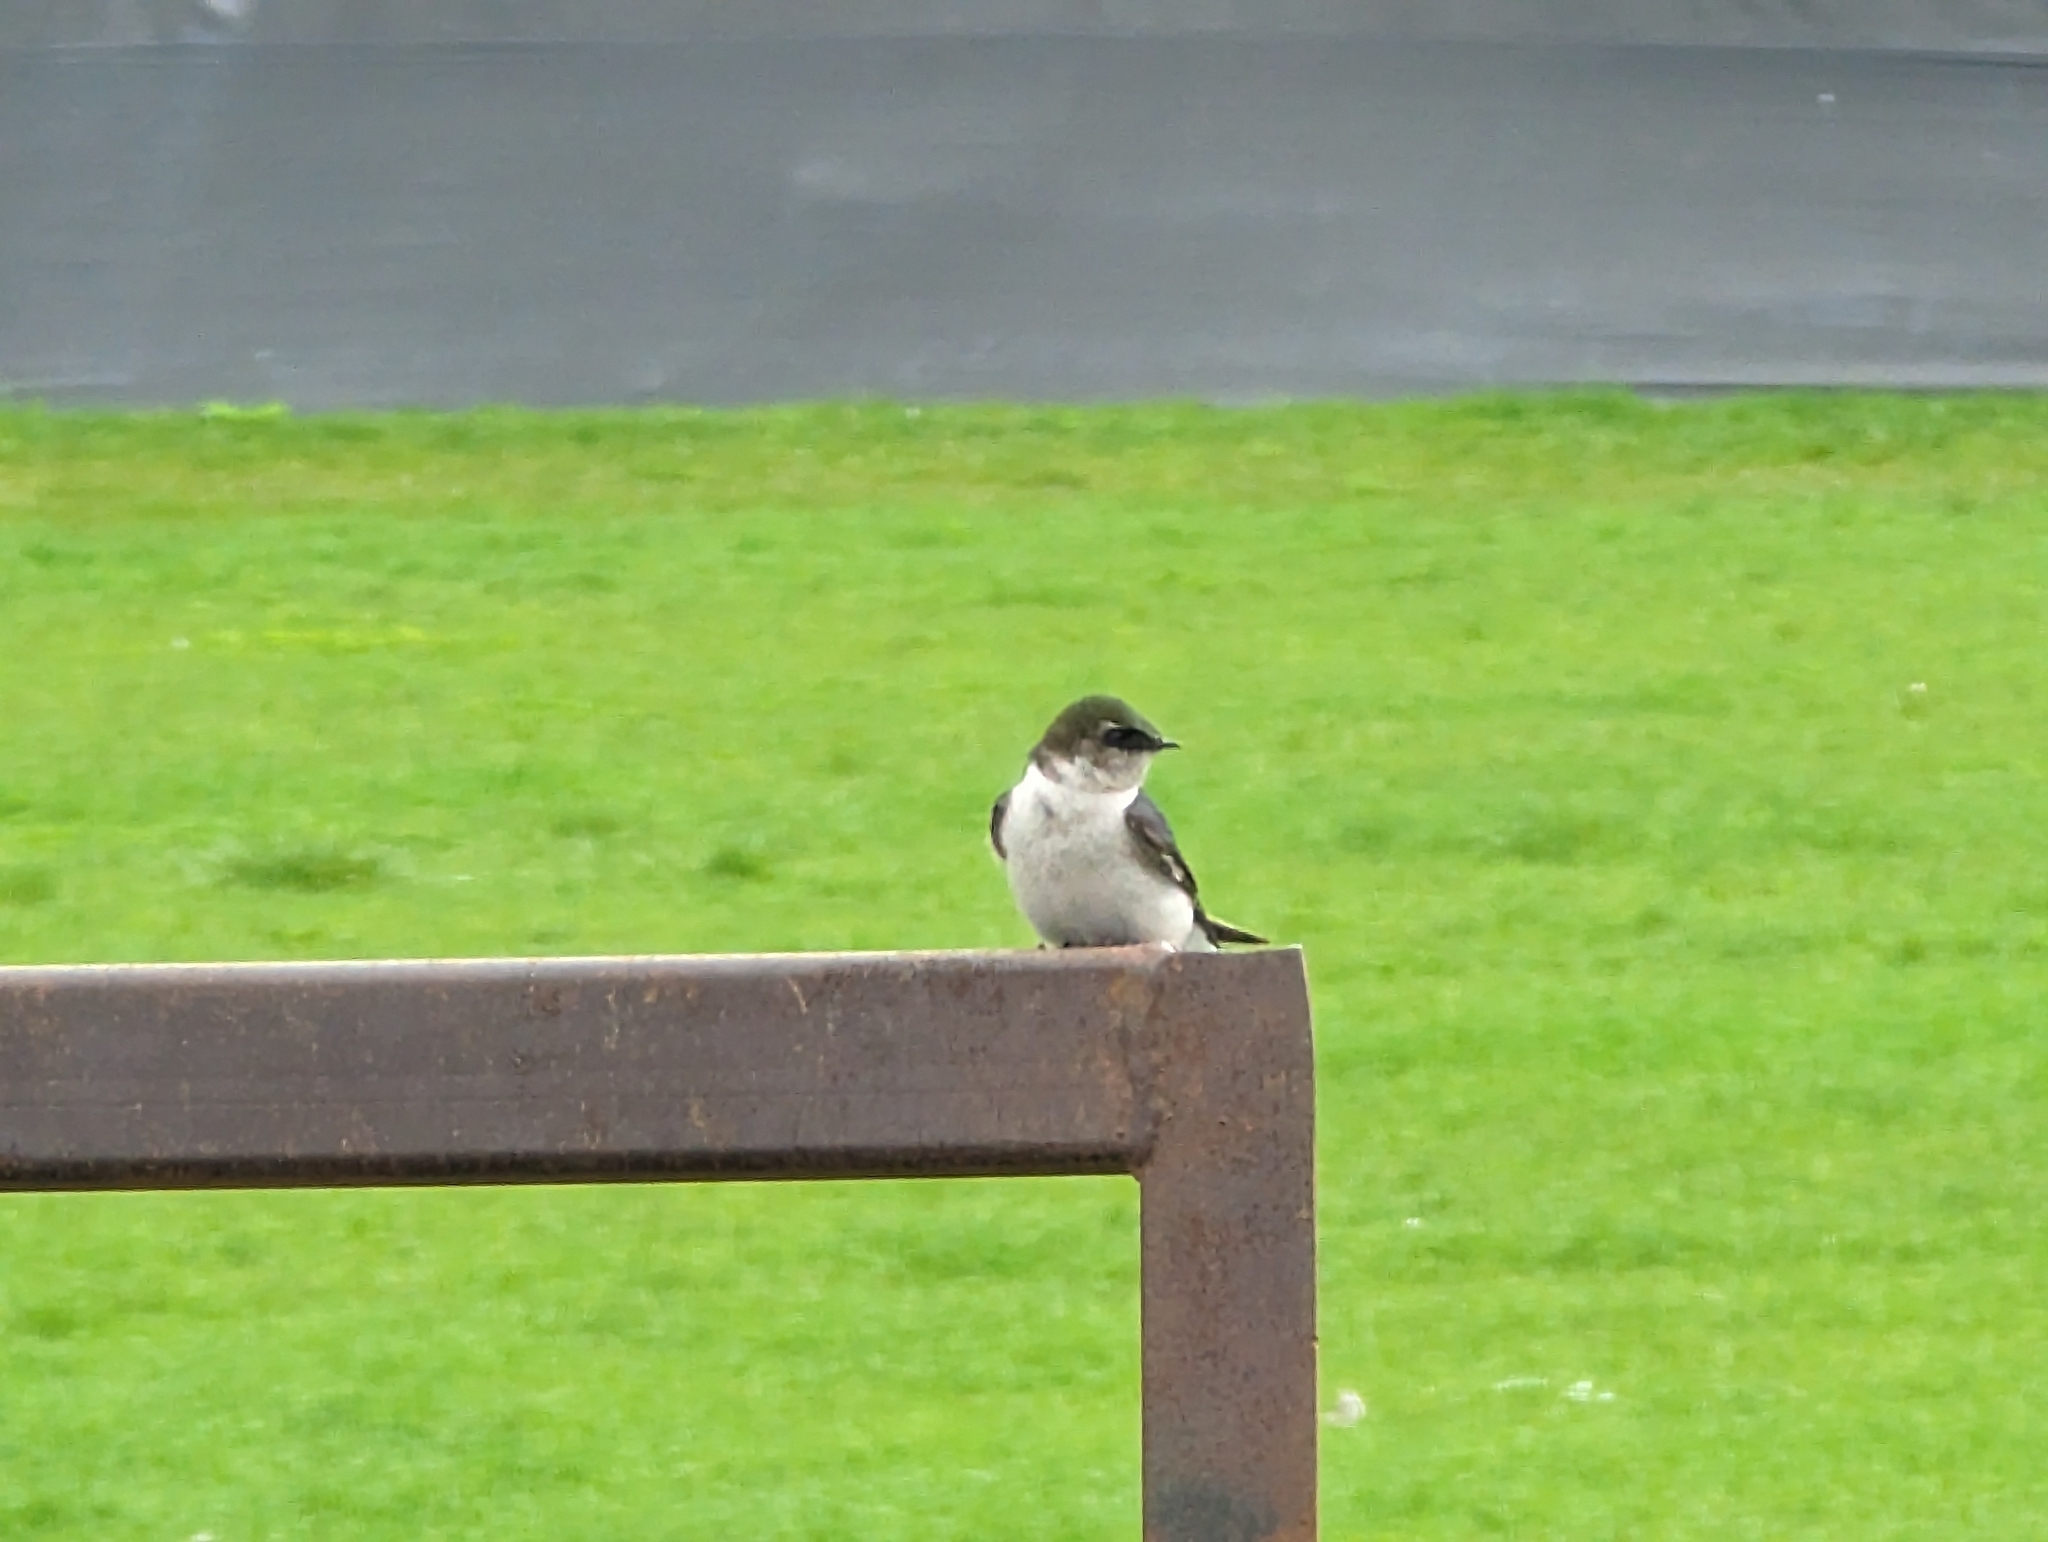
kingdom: Animalia
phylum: Chordata
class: Aves
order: Passeriformes
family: Hirundinidae
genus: Tachycineta
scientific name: Tachycineta thalassina
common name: Violet-green swallow
